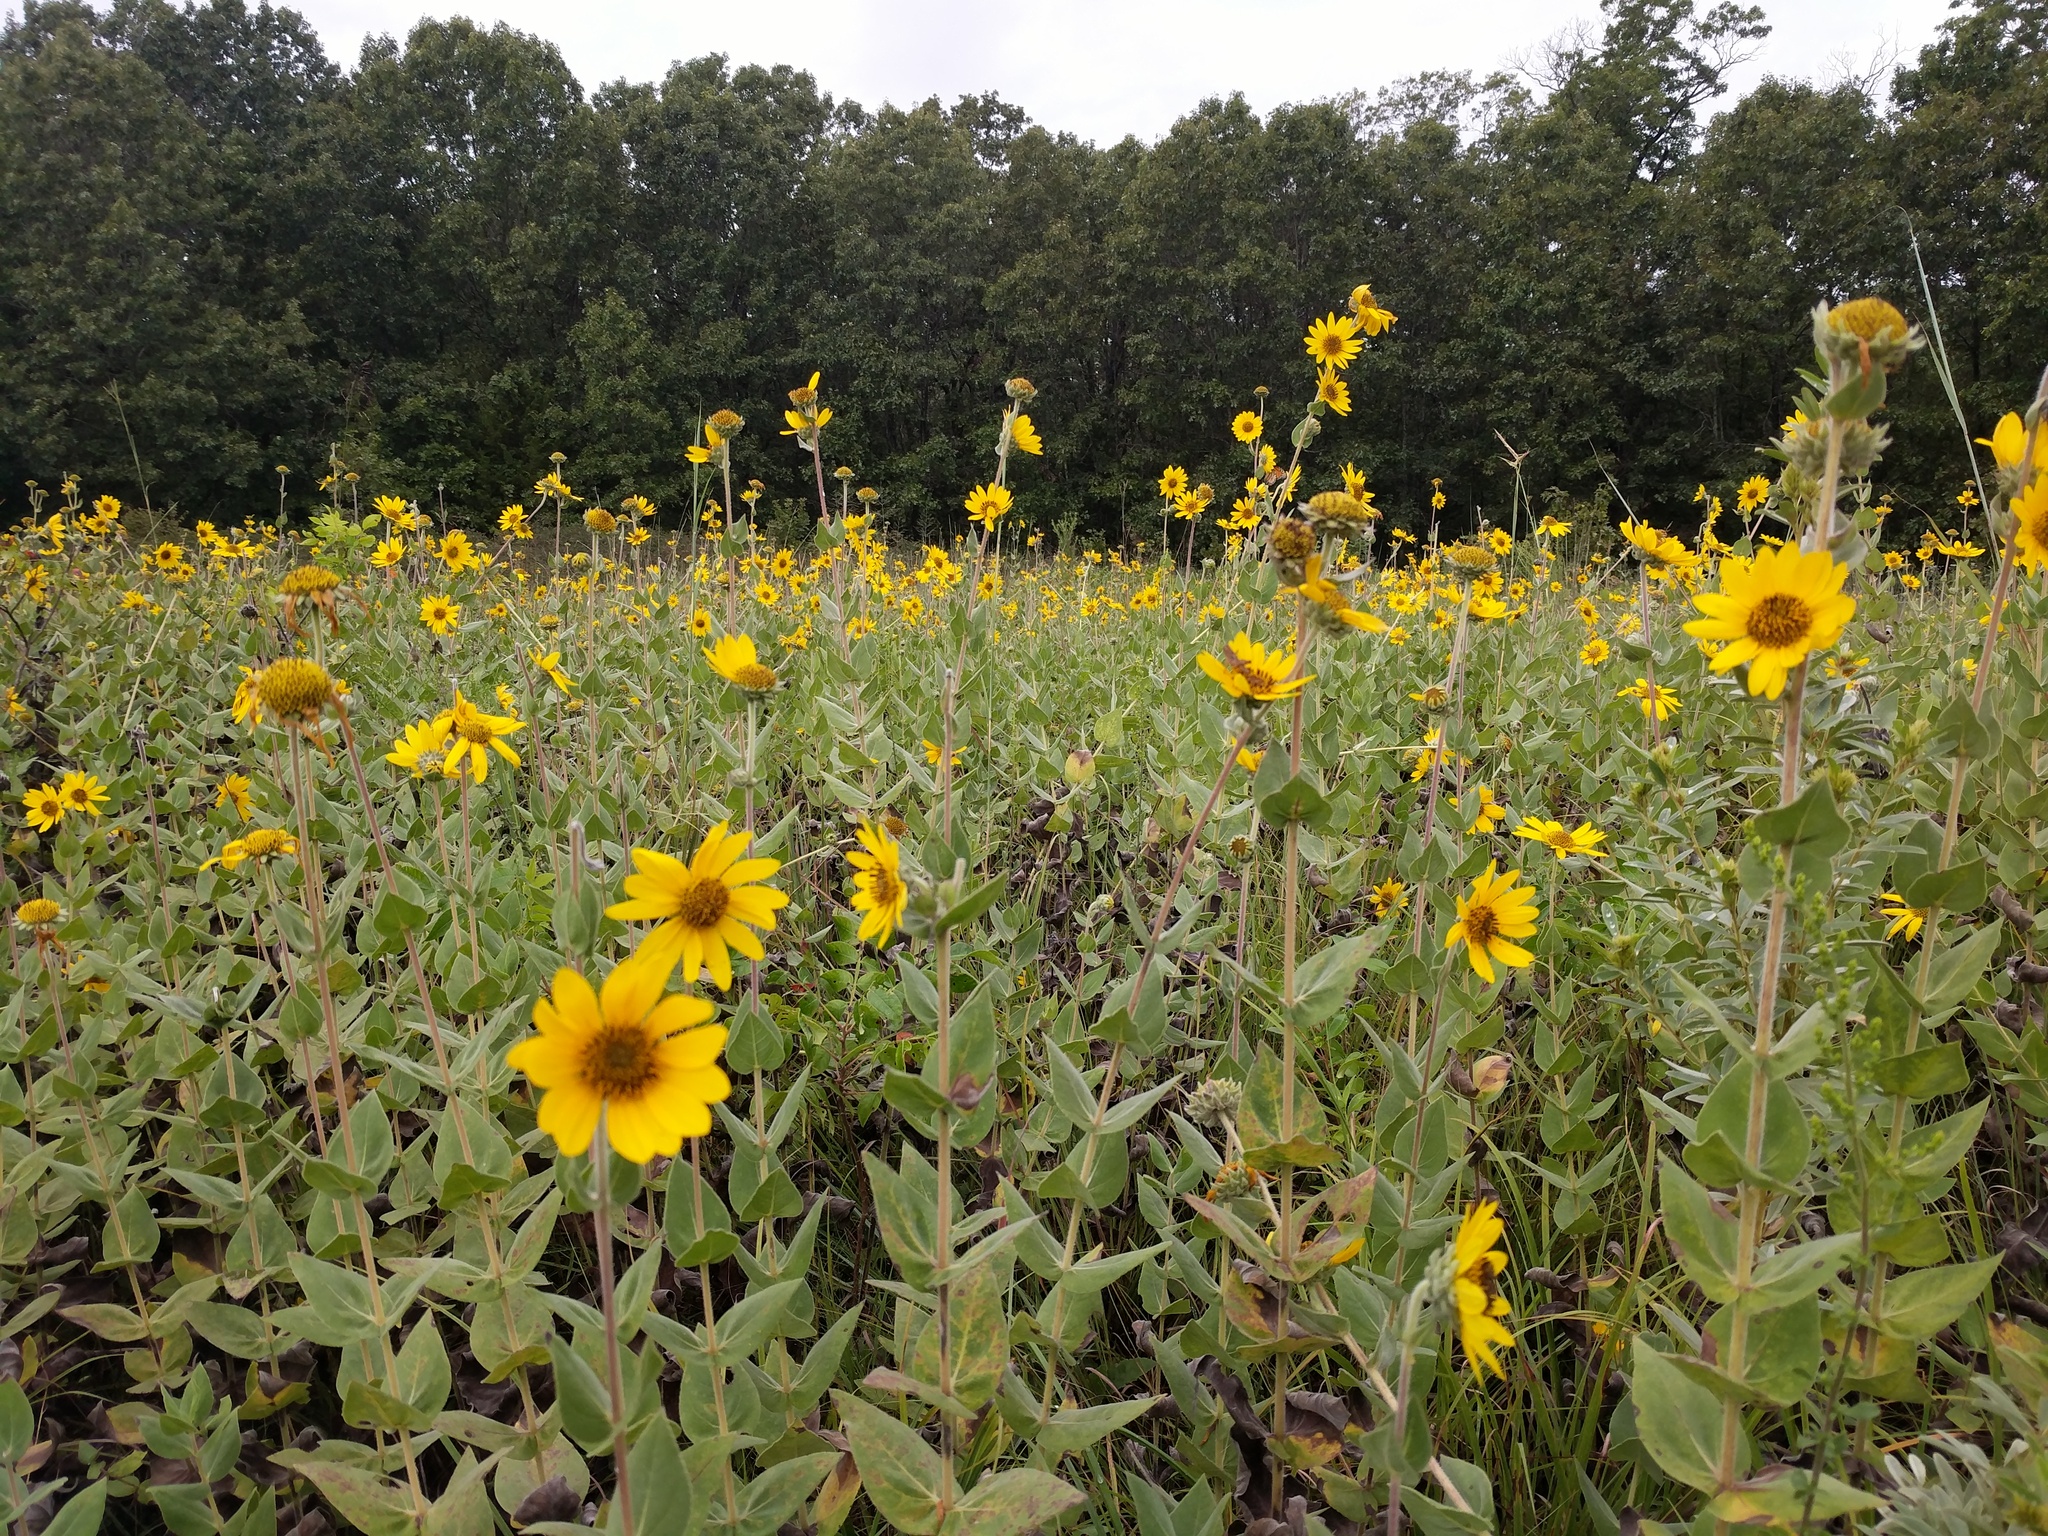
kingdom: Plantae
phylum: Tracheophyta
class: Magnoliopsida
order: Asterales
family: Asteraceae
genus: Helianthus
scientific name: Helianthus mollis
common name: Ashy sunflower
